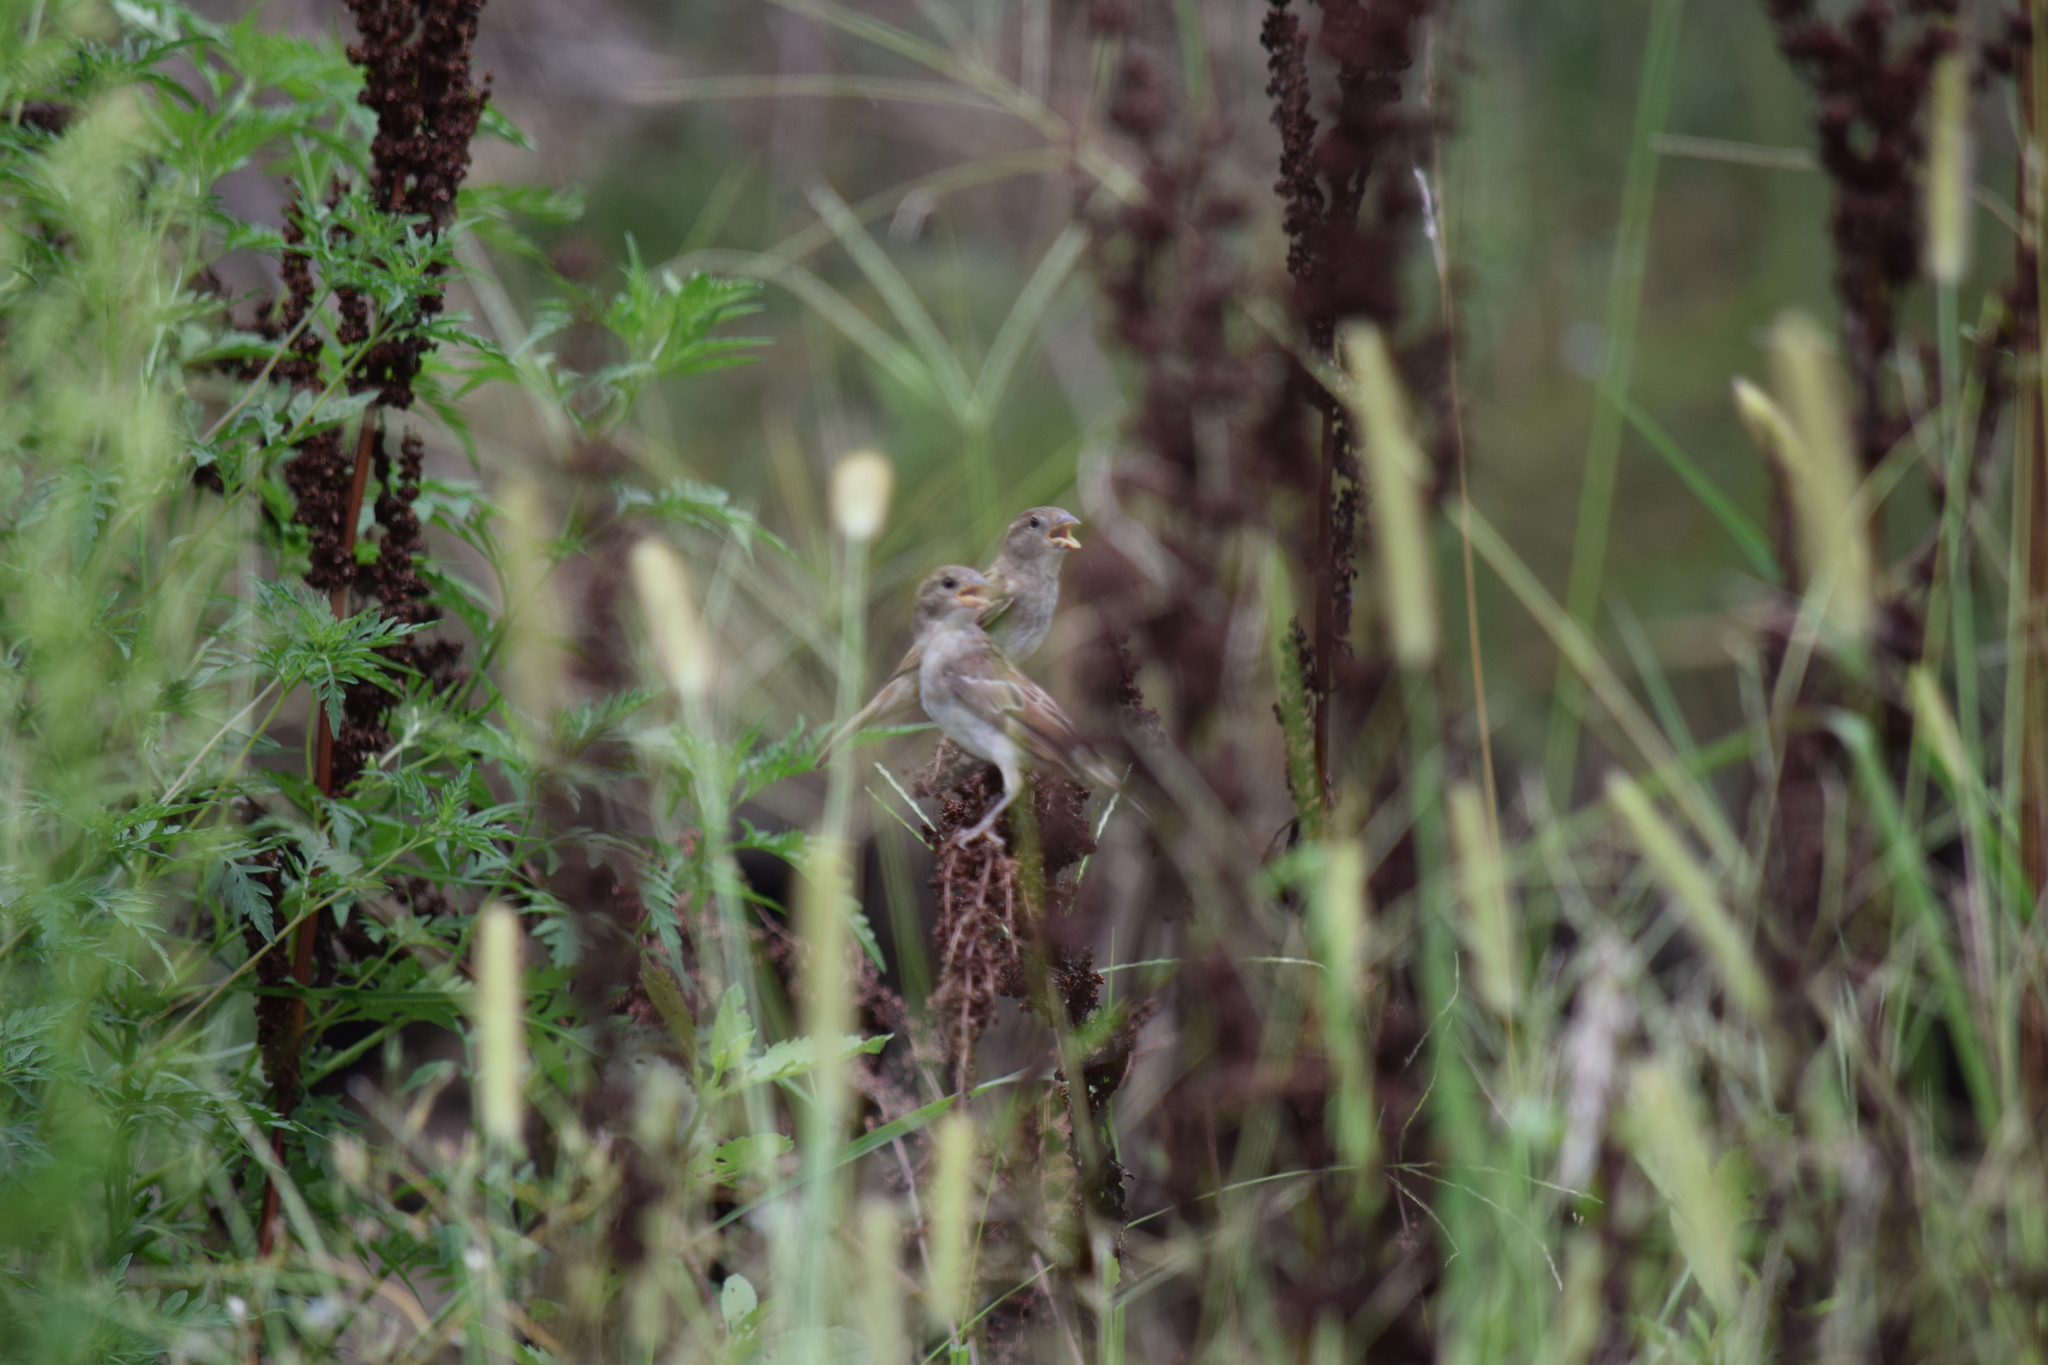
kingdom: Animalia
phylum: Chordata
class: Aves
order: Passeriformes
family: Passeridae
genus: Passer
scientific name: Passer domesticus
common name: House sparrow
